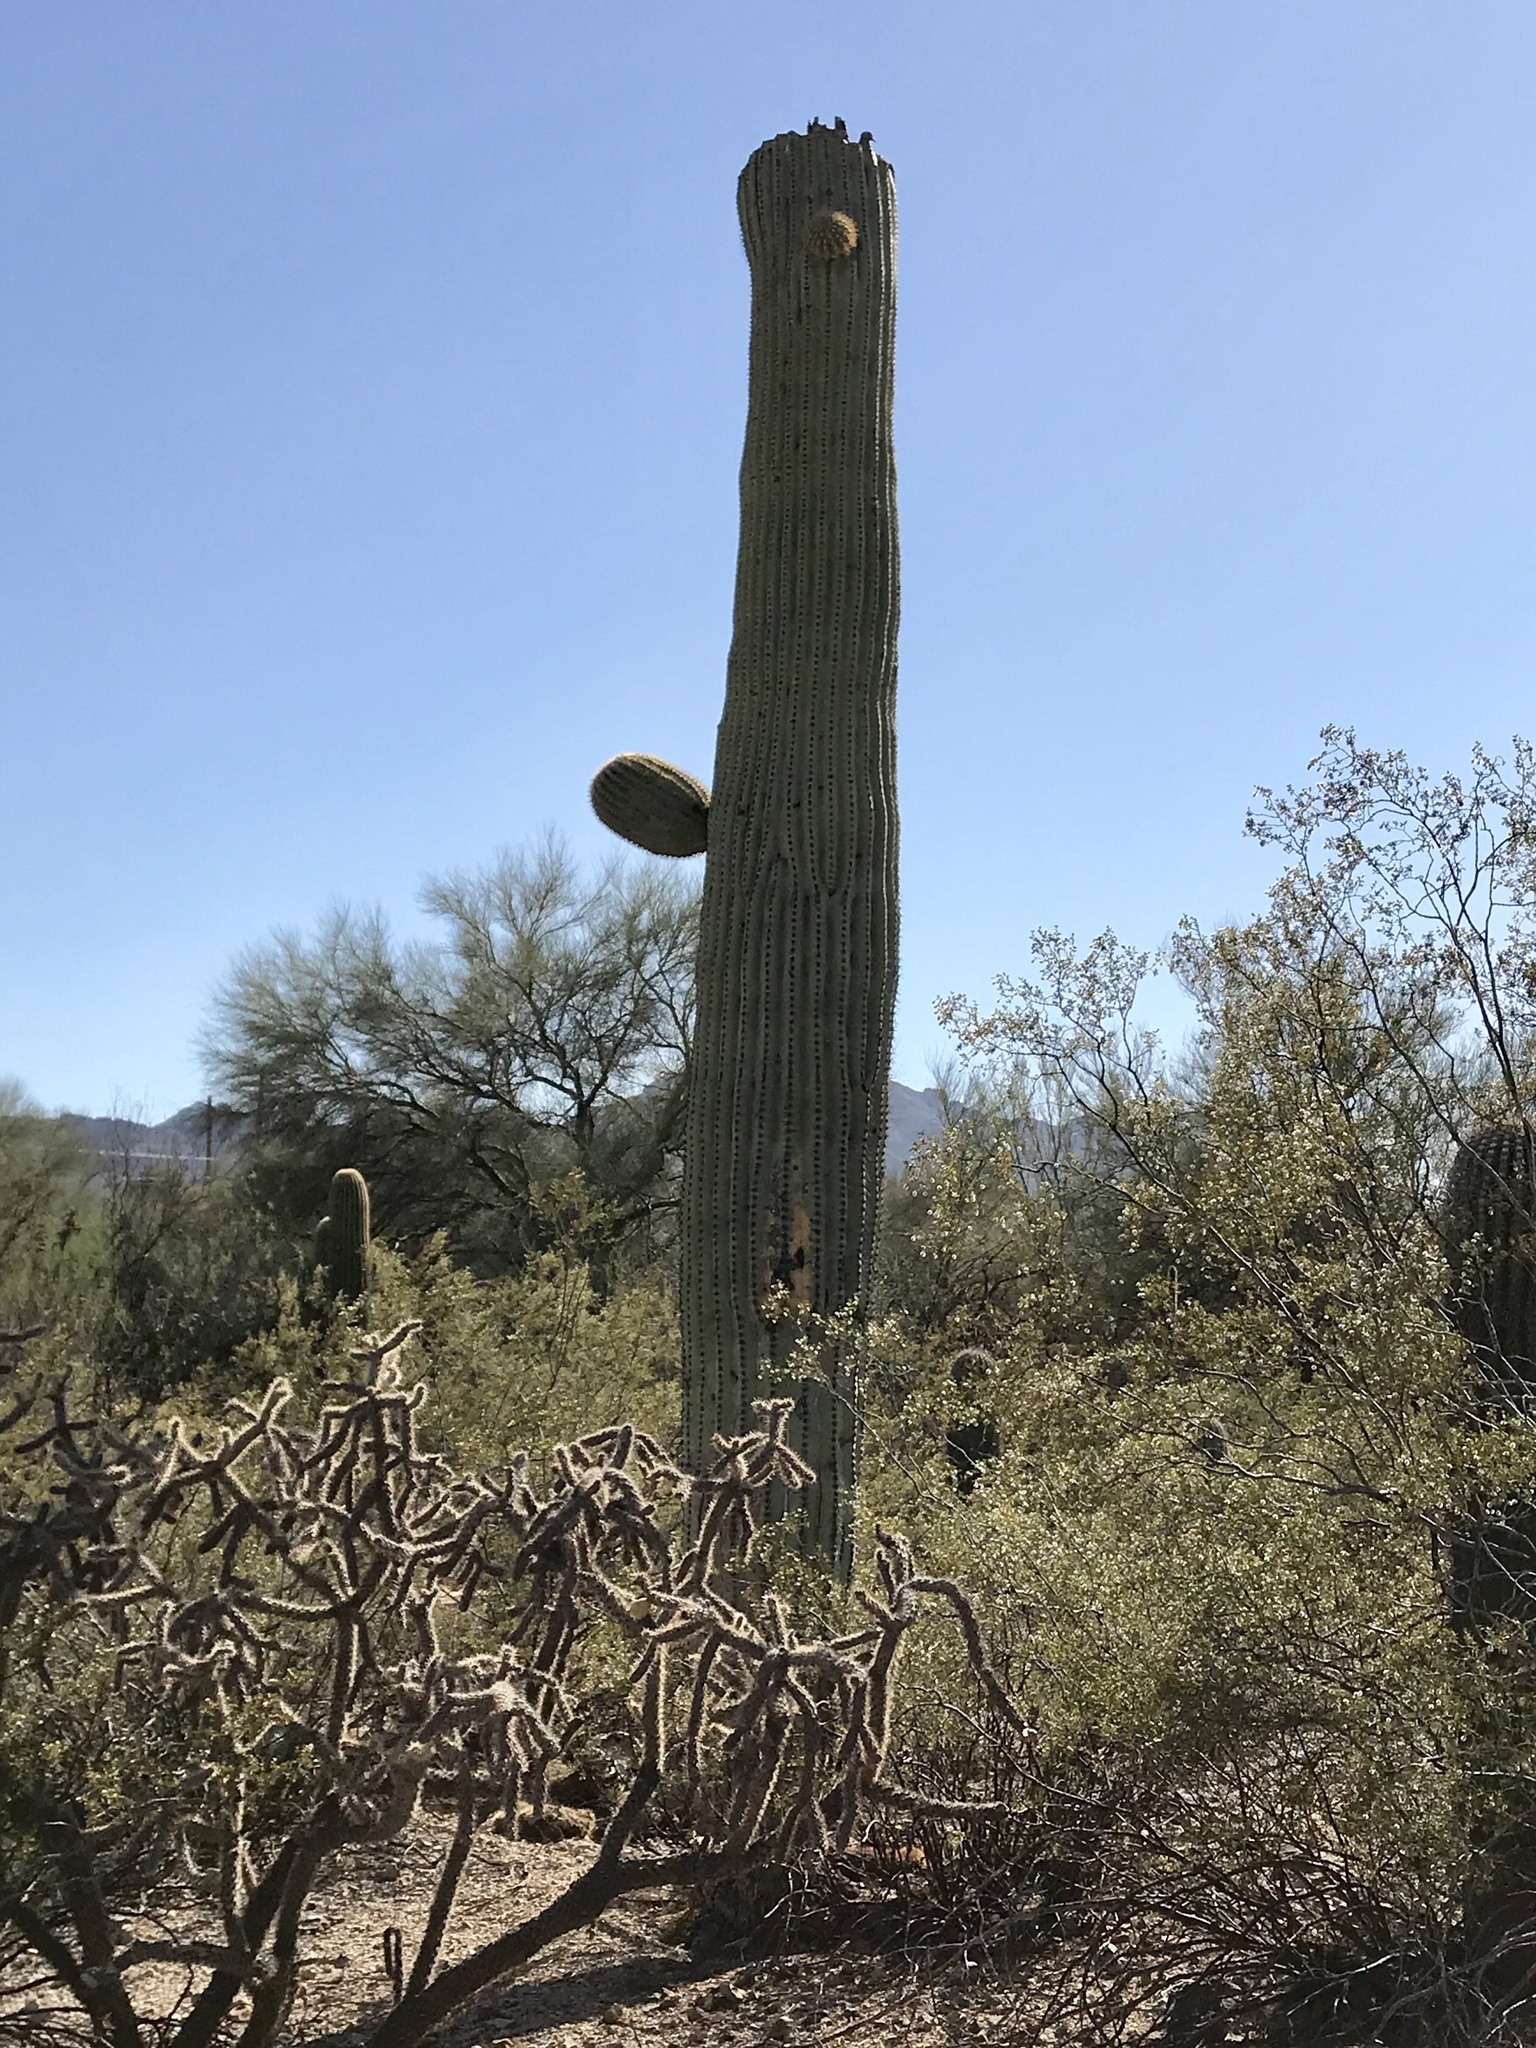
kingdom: Plantae
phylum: Tracheophyta
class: Magnoliopsida
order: Caryophyllales
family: Cactaceae
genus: Carnegiea
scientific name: Carnegiea gigantea
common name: Saguaro
